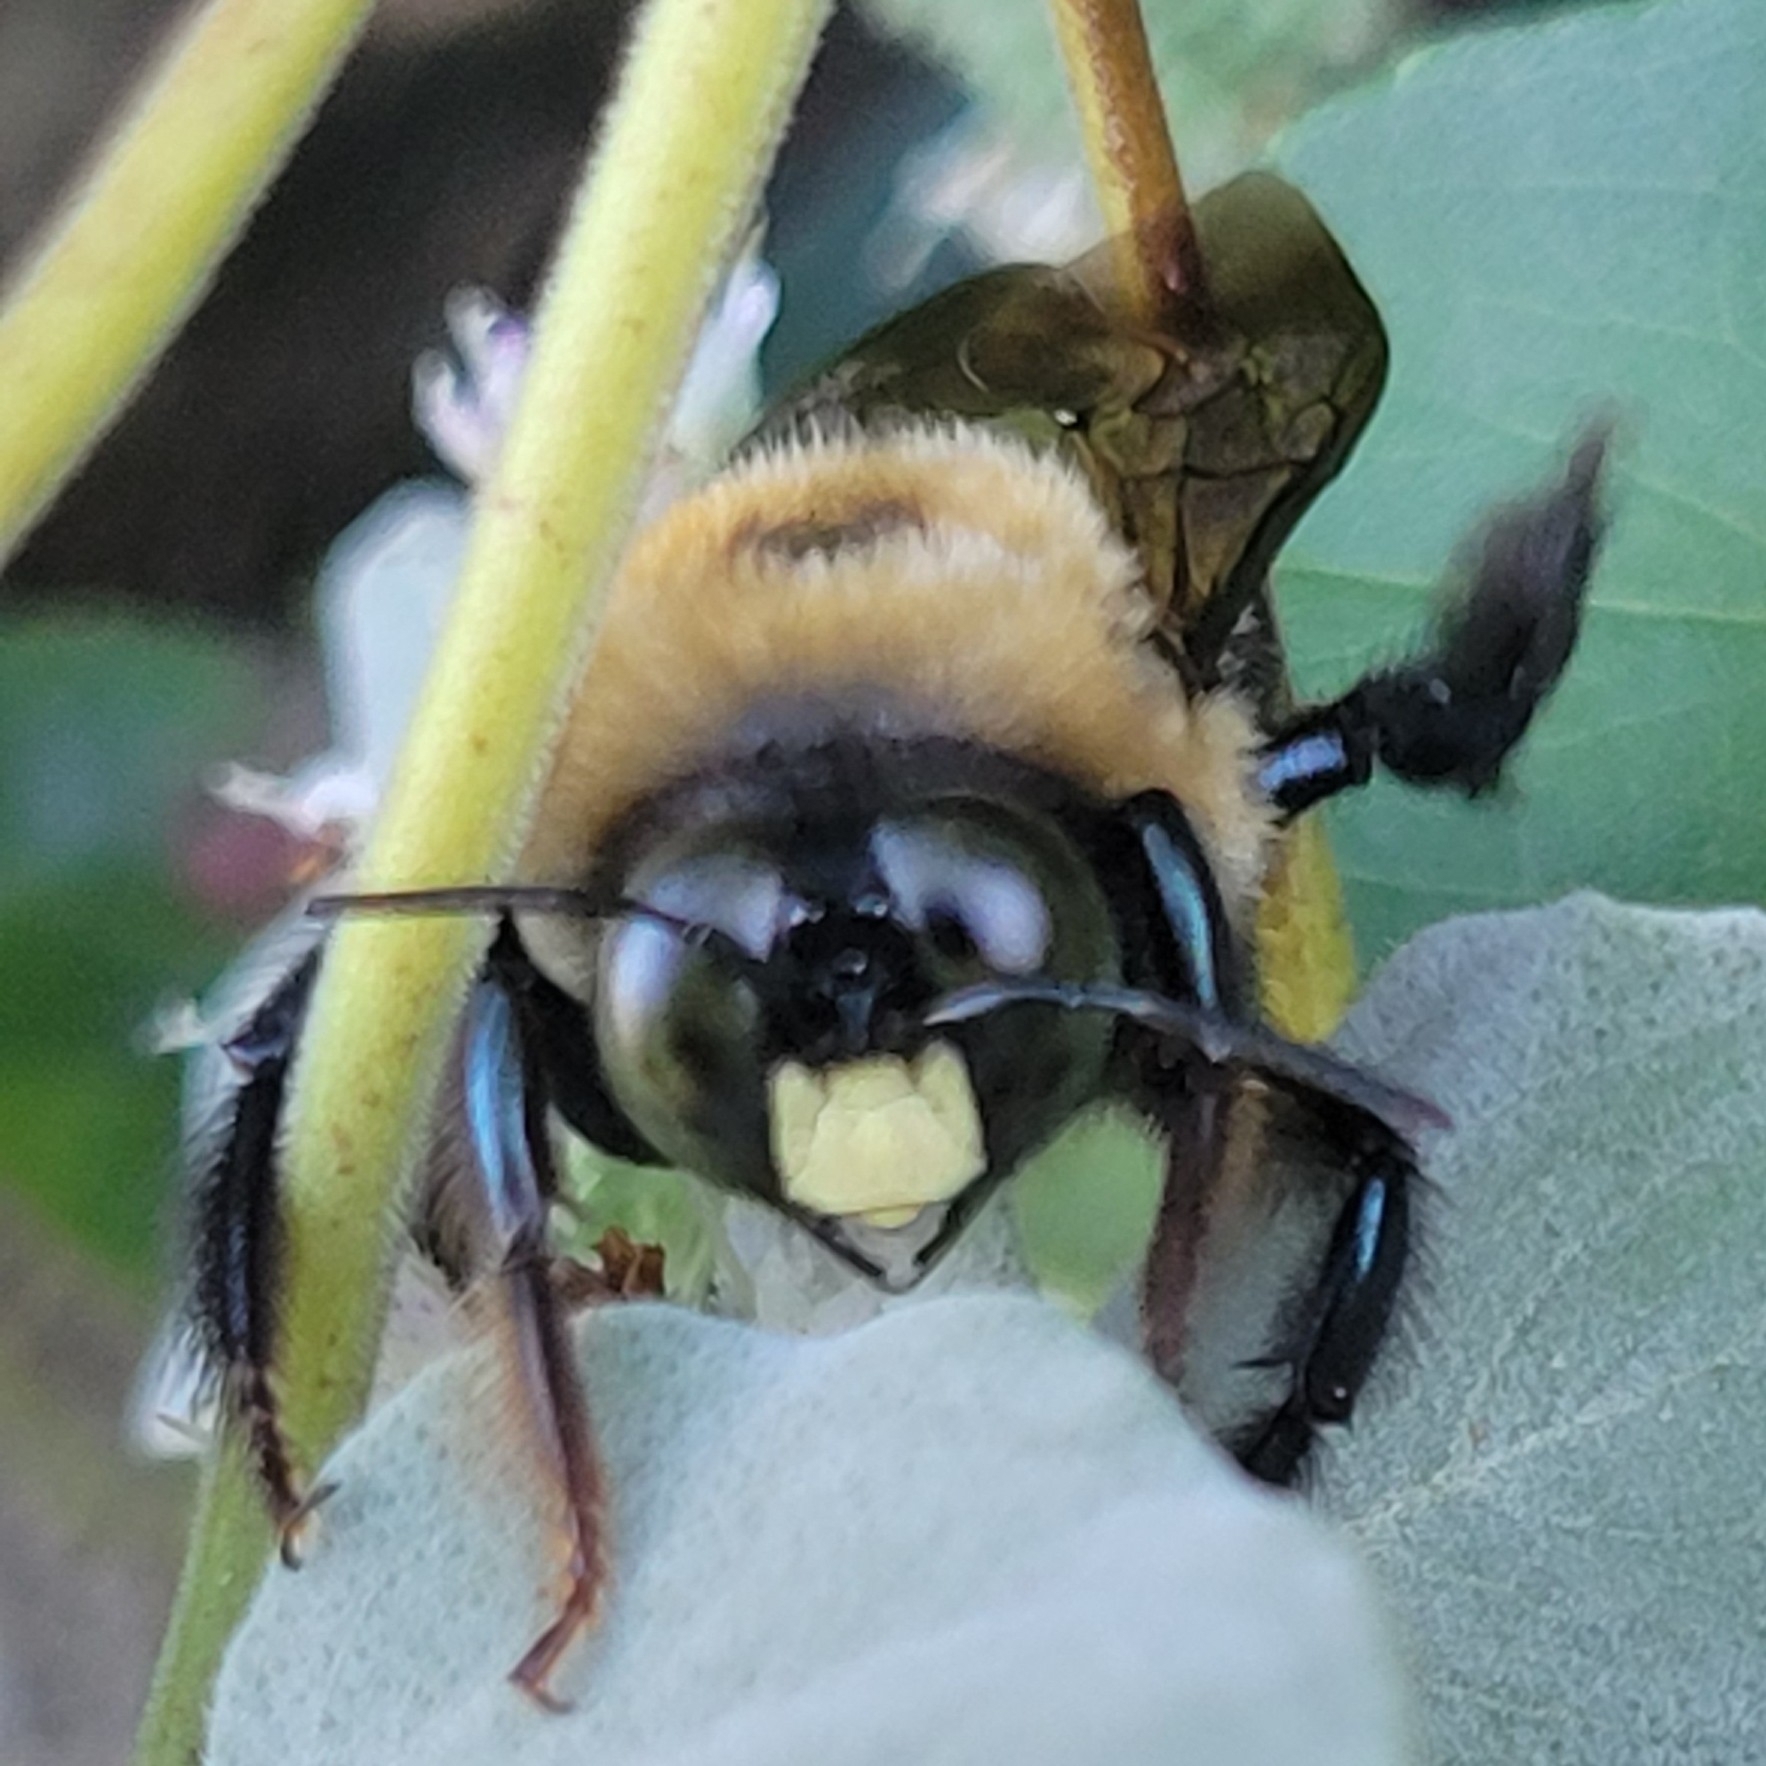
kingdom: Animalia
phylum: Arthropoda
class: Insecta
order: Hymenoptera
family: Apidae
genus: Xylocopa
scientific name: Xylocopa virginica
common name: Carpenter bee
